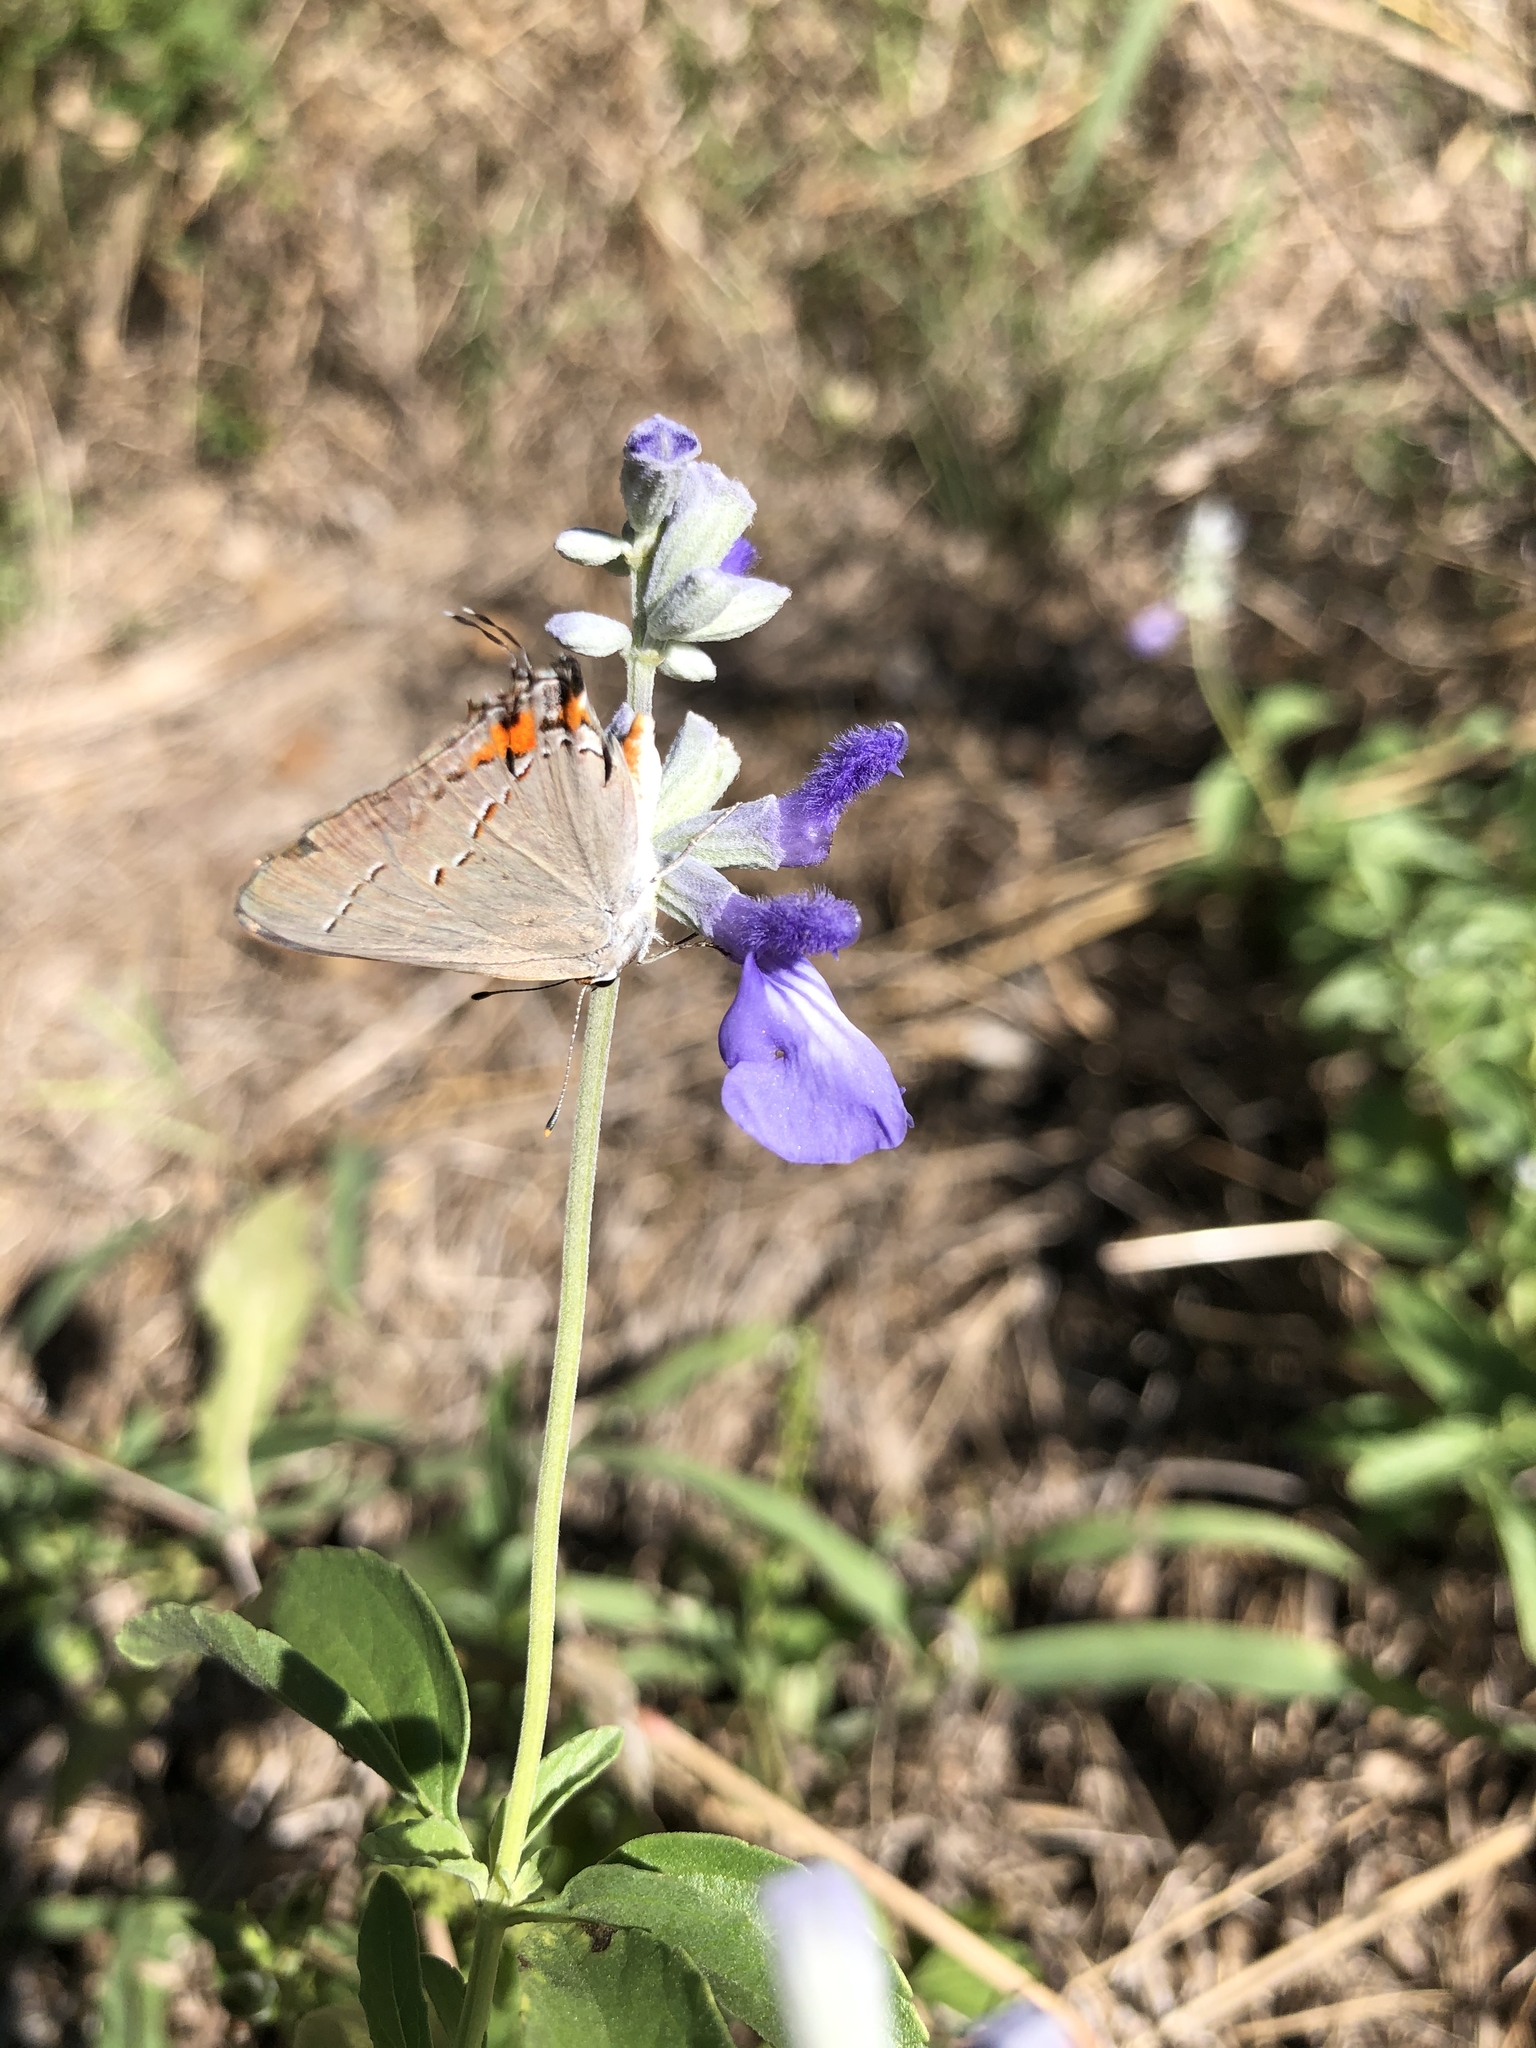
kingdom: Plantae
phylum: Tracheophyta
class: Magnoliopsida
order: Lamiales
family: Lamiaceae
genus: Salvia
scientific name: Salvia farinacea
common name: Mealy sage
